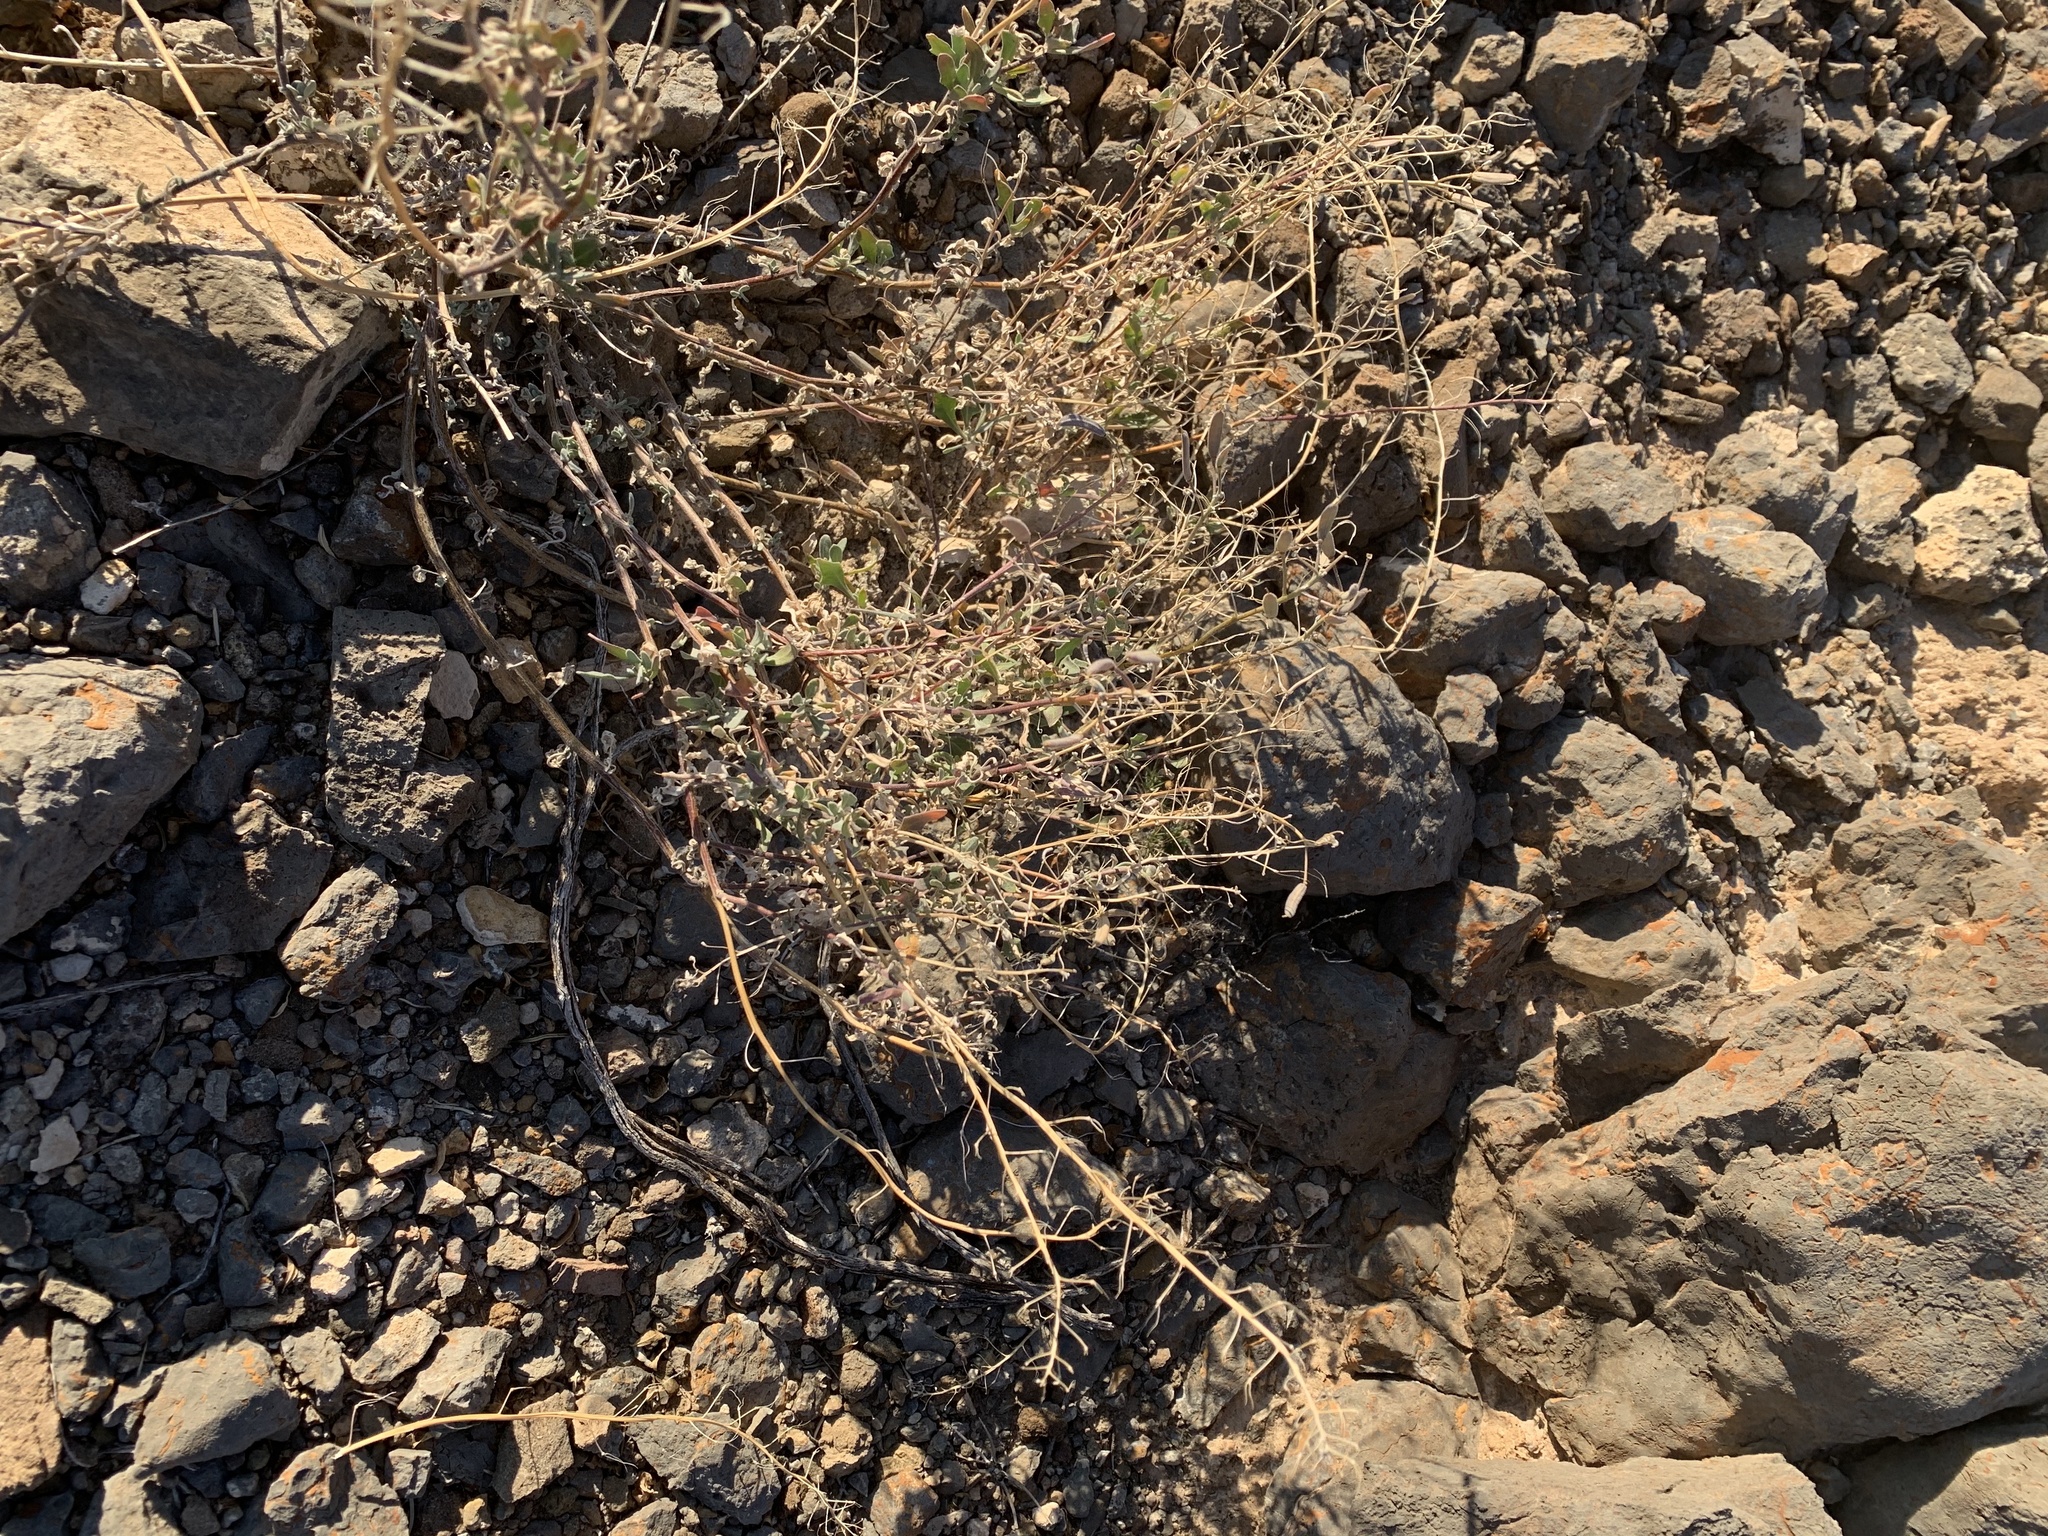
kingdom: Plantae
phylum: Tracheophyta
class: Magnoliopsida
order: Asterales
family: Asteraceae
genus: Parthenium
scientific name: Parthenium incanum
